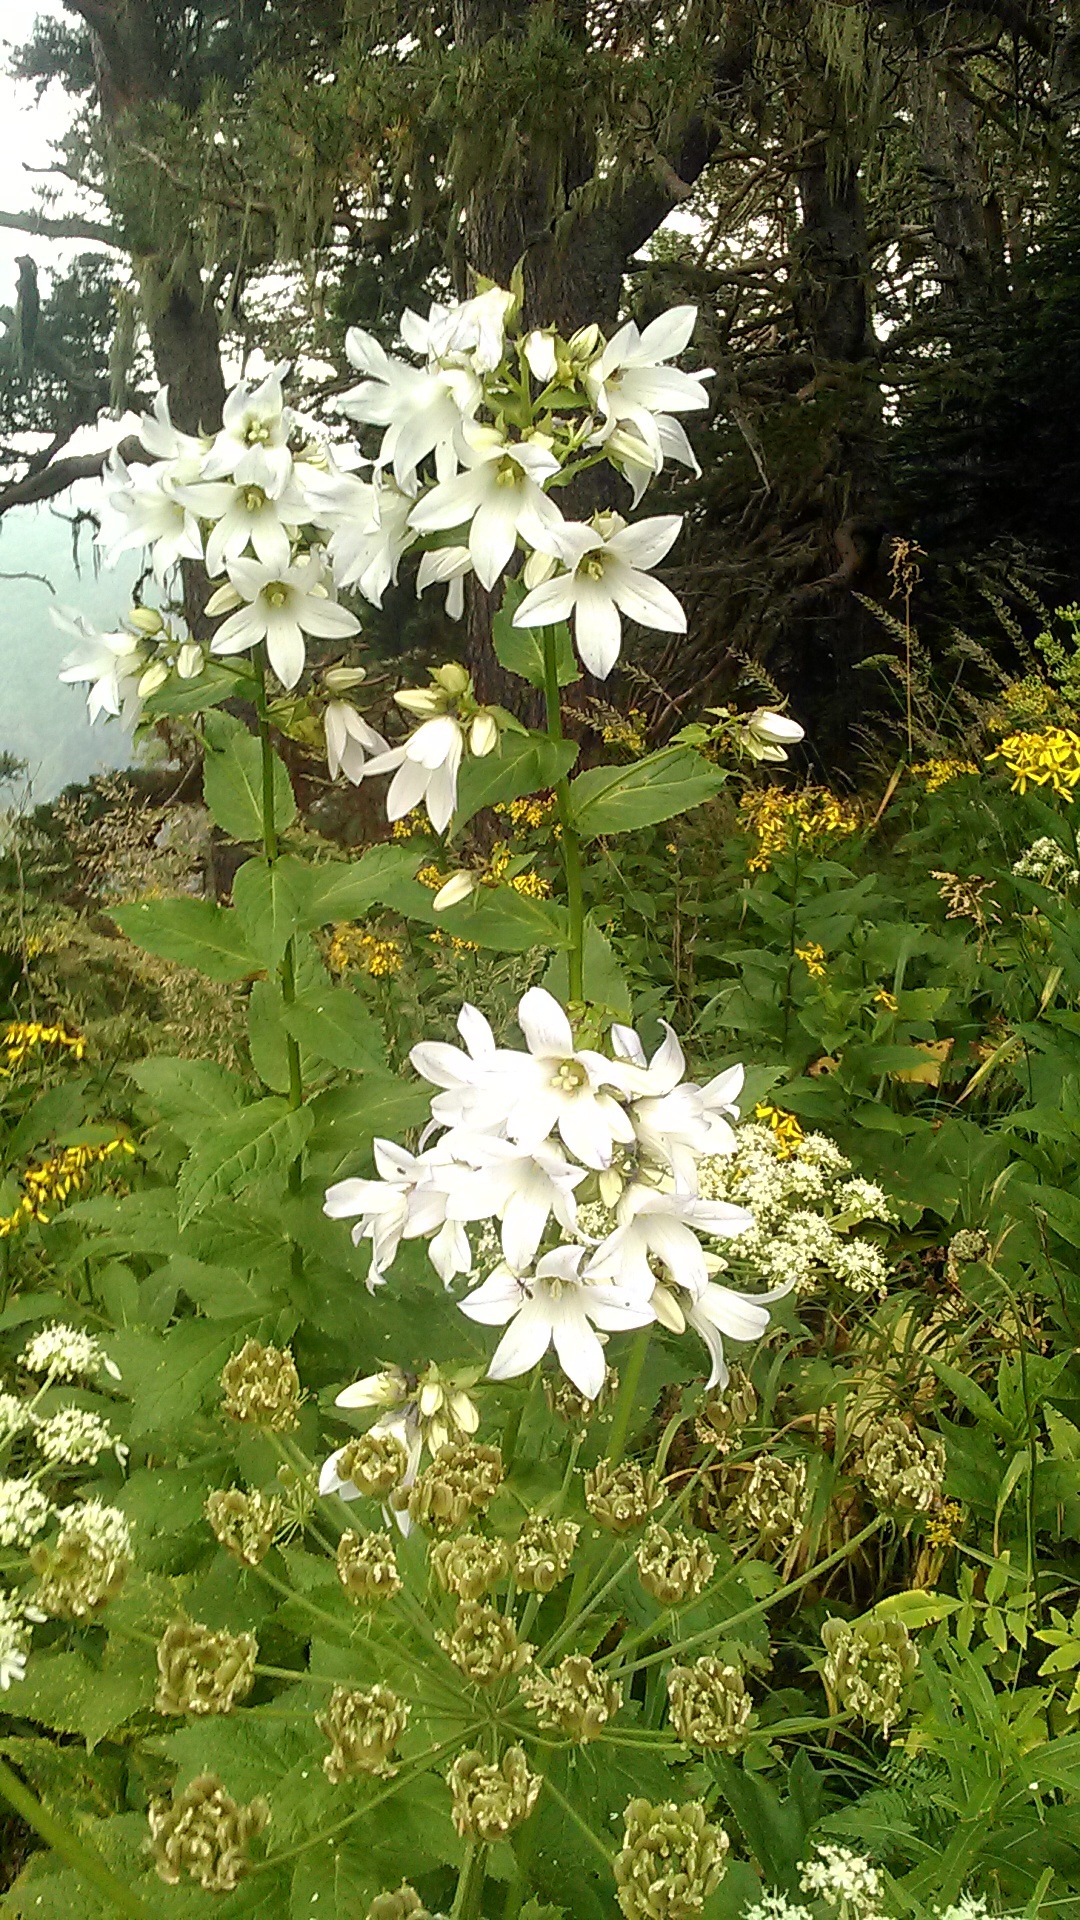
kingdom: Plantae
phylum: Tracheophyta
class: Magnoliopsida
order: Asterales
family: Campanulaceae
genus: Campanula
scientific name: Campanula lactiflora
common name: Milky bellflower
